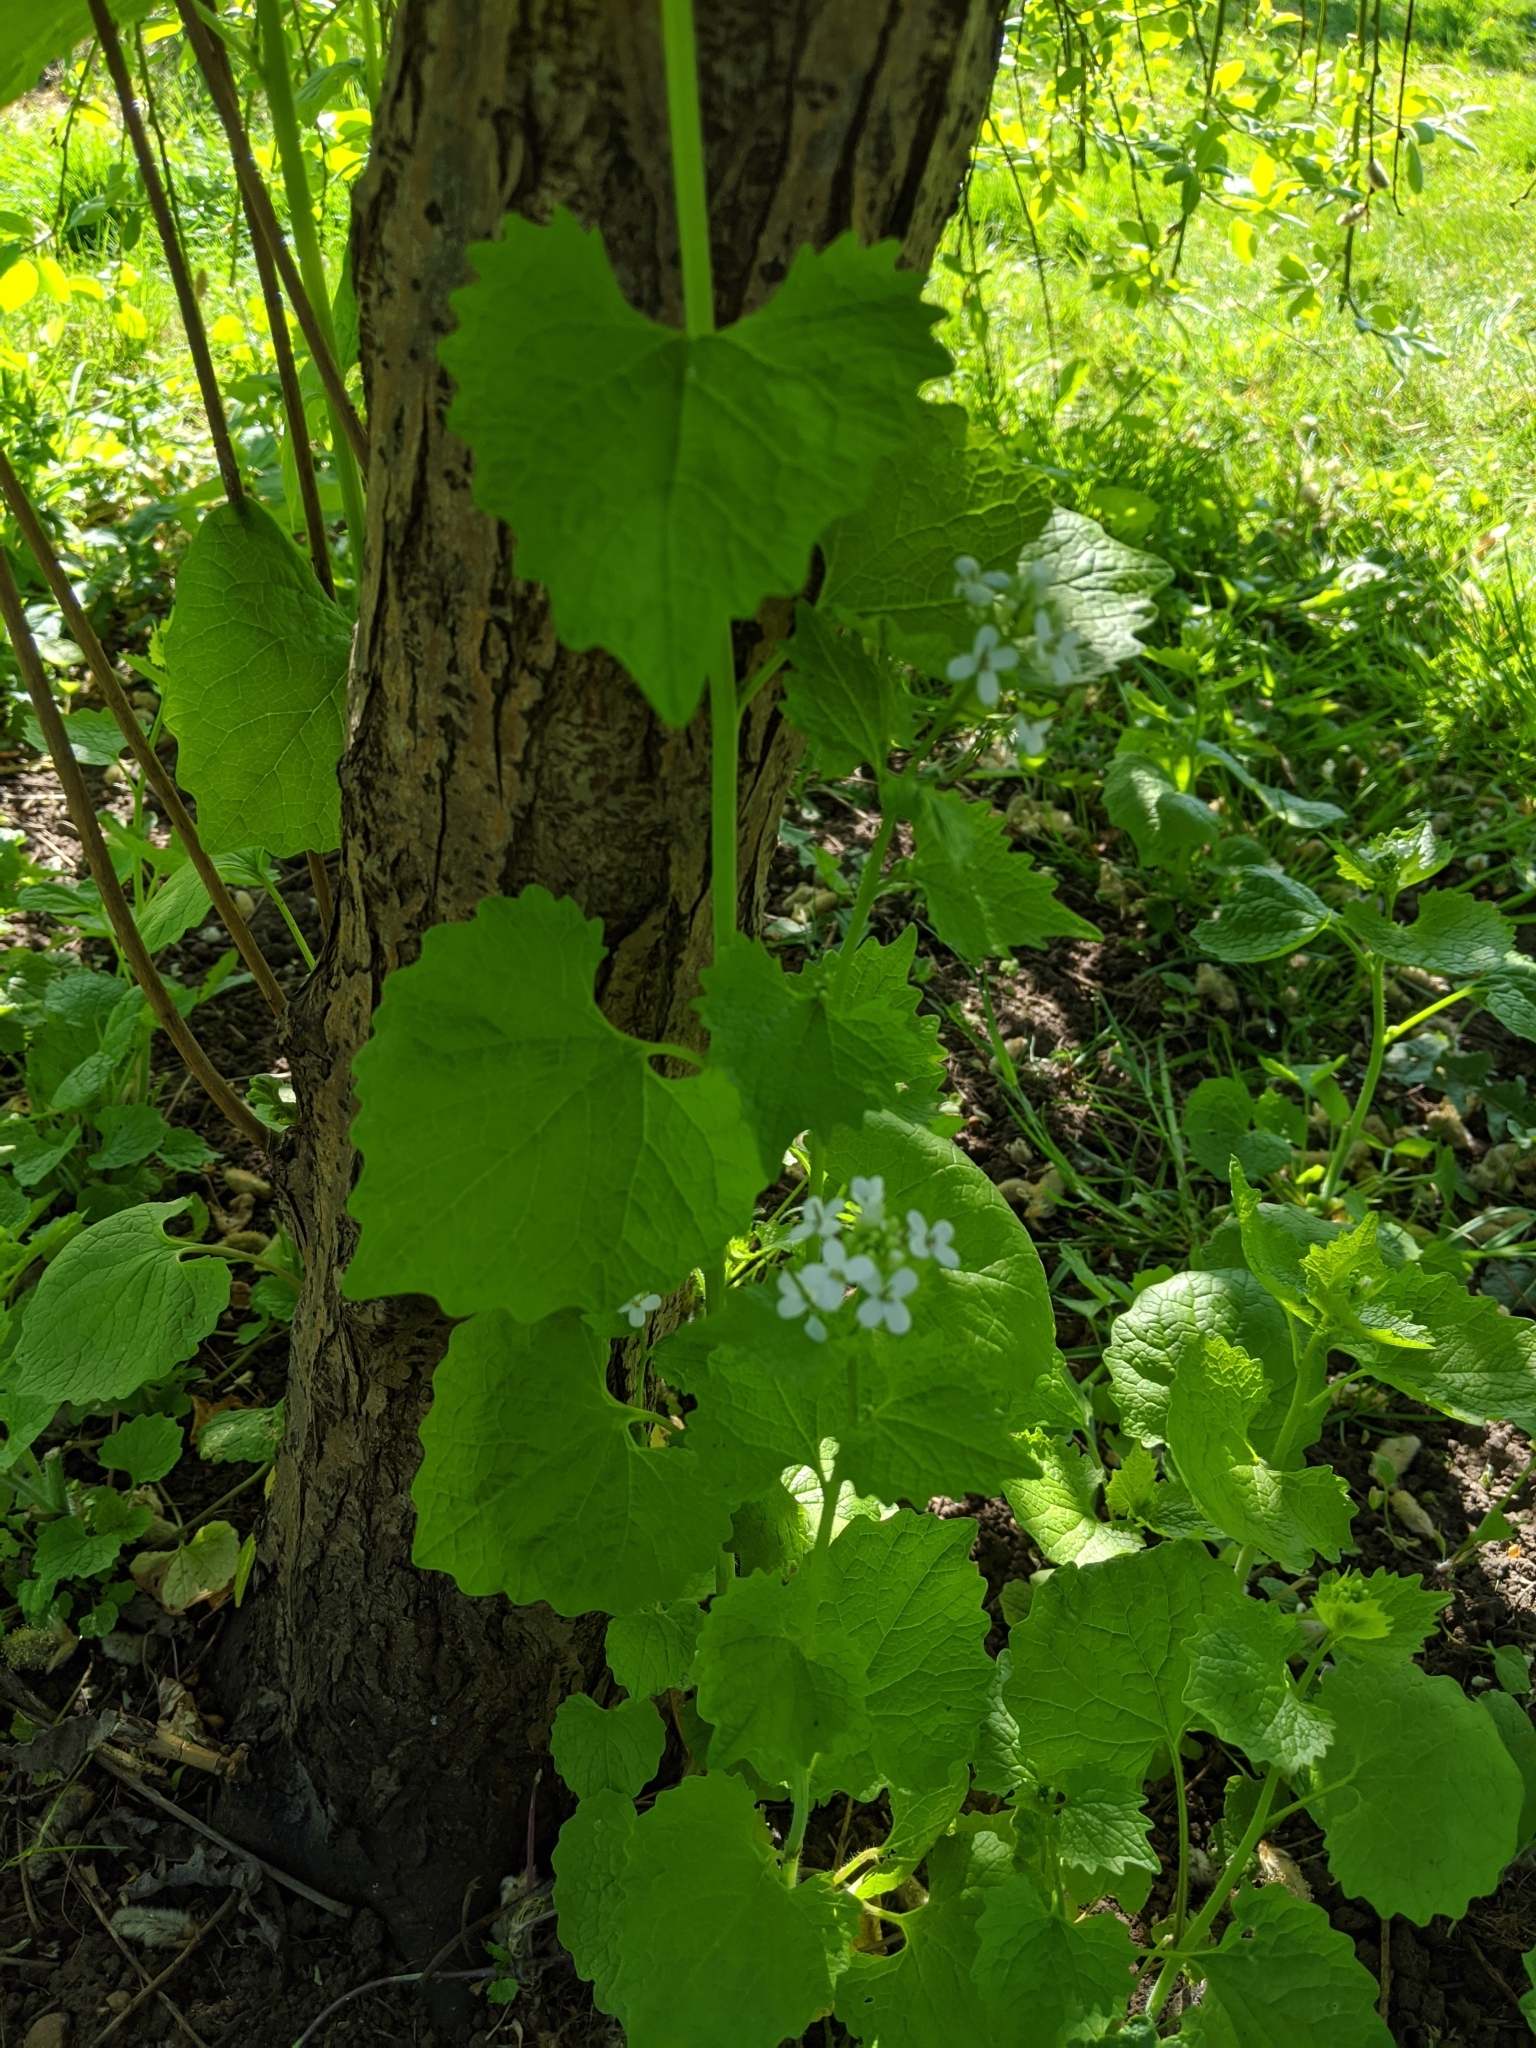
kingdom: Plantae
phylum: Tracheophyta
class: Magnoliopsida
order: Brassicales
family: Brassicaceae
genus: Alliaria
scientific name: Alliaria petiolata
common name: Garlic mustard
